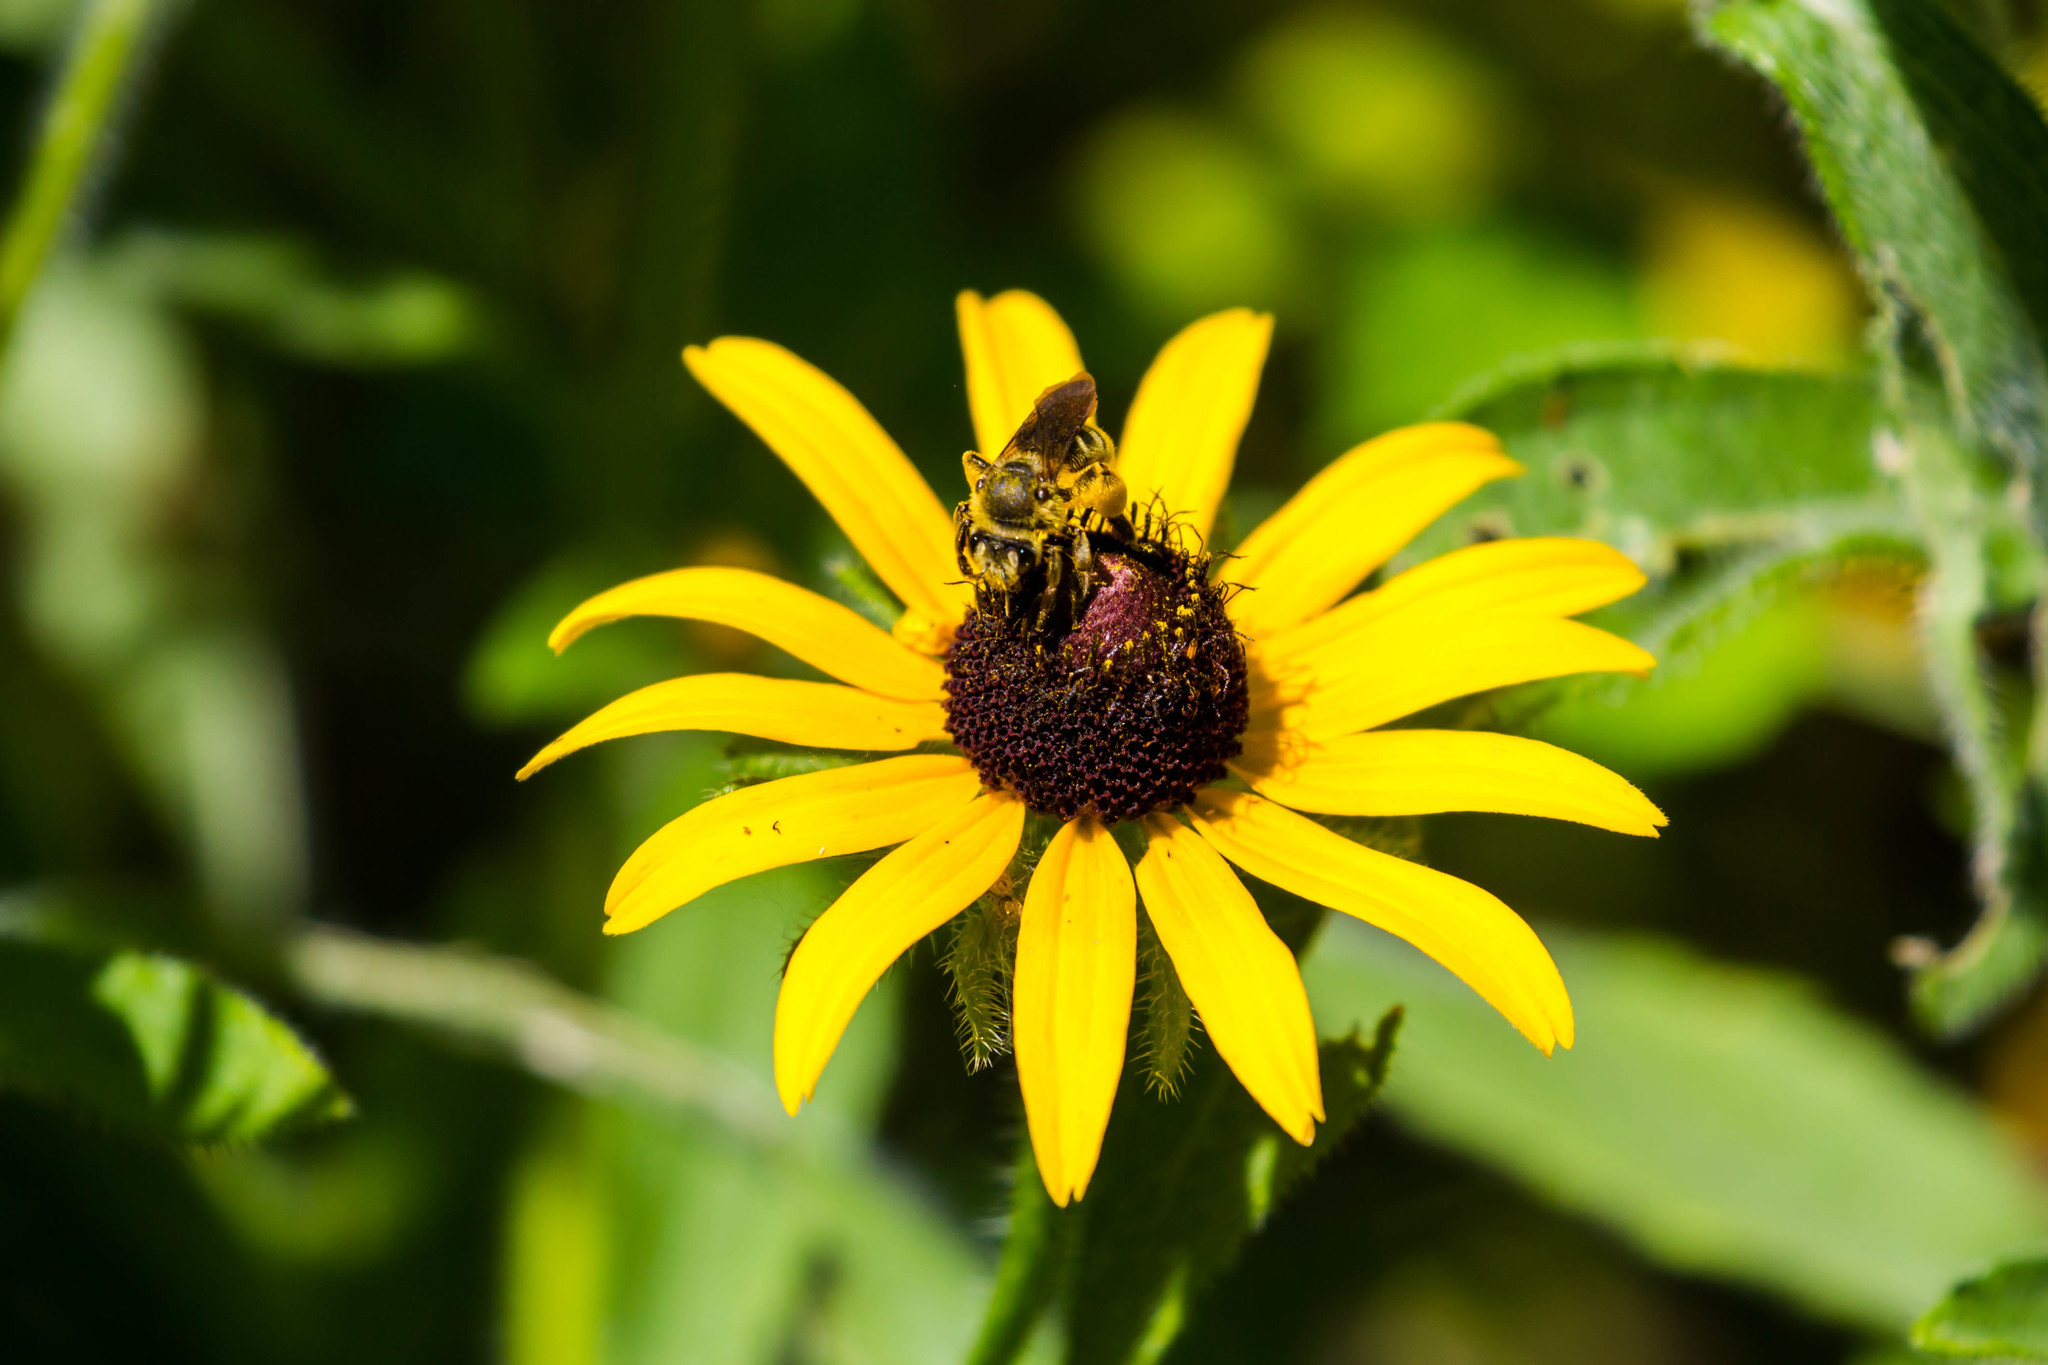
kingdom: Animalia
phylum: Arthropoda
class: Insecta
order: Hymenoptera
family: Andrenidae
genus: Andrena
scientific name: Andrena rudbeckiae
